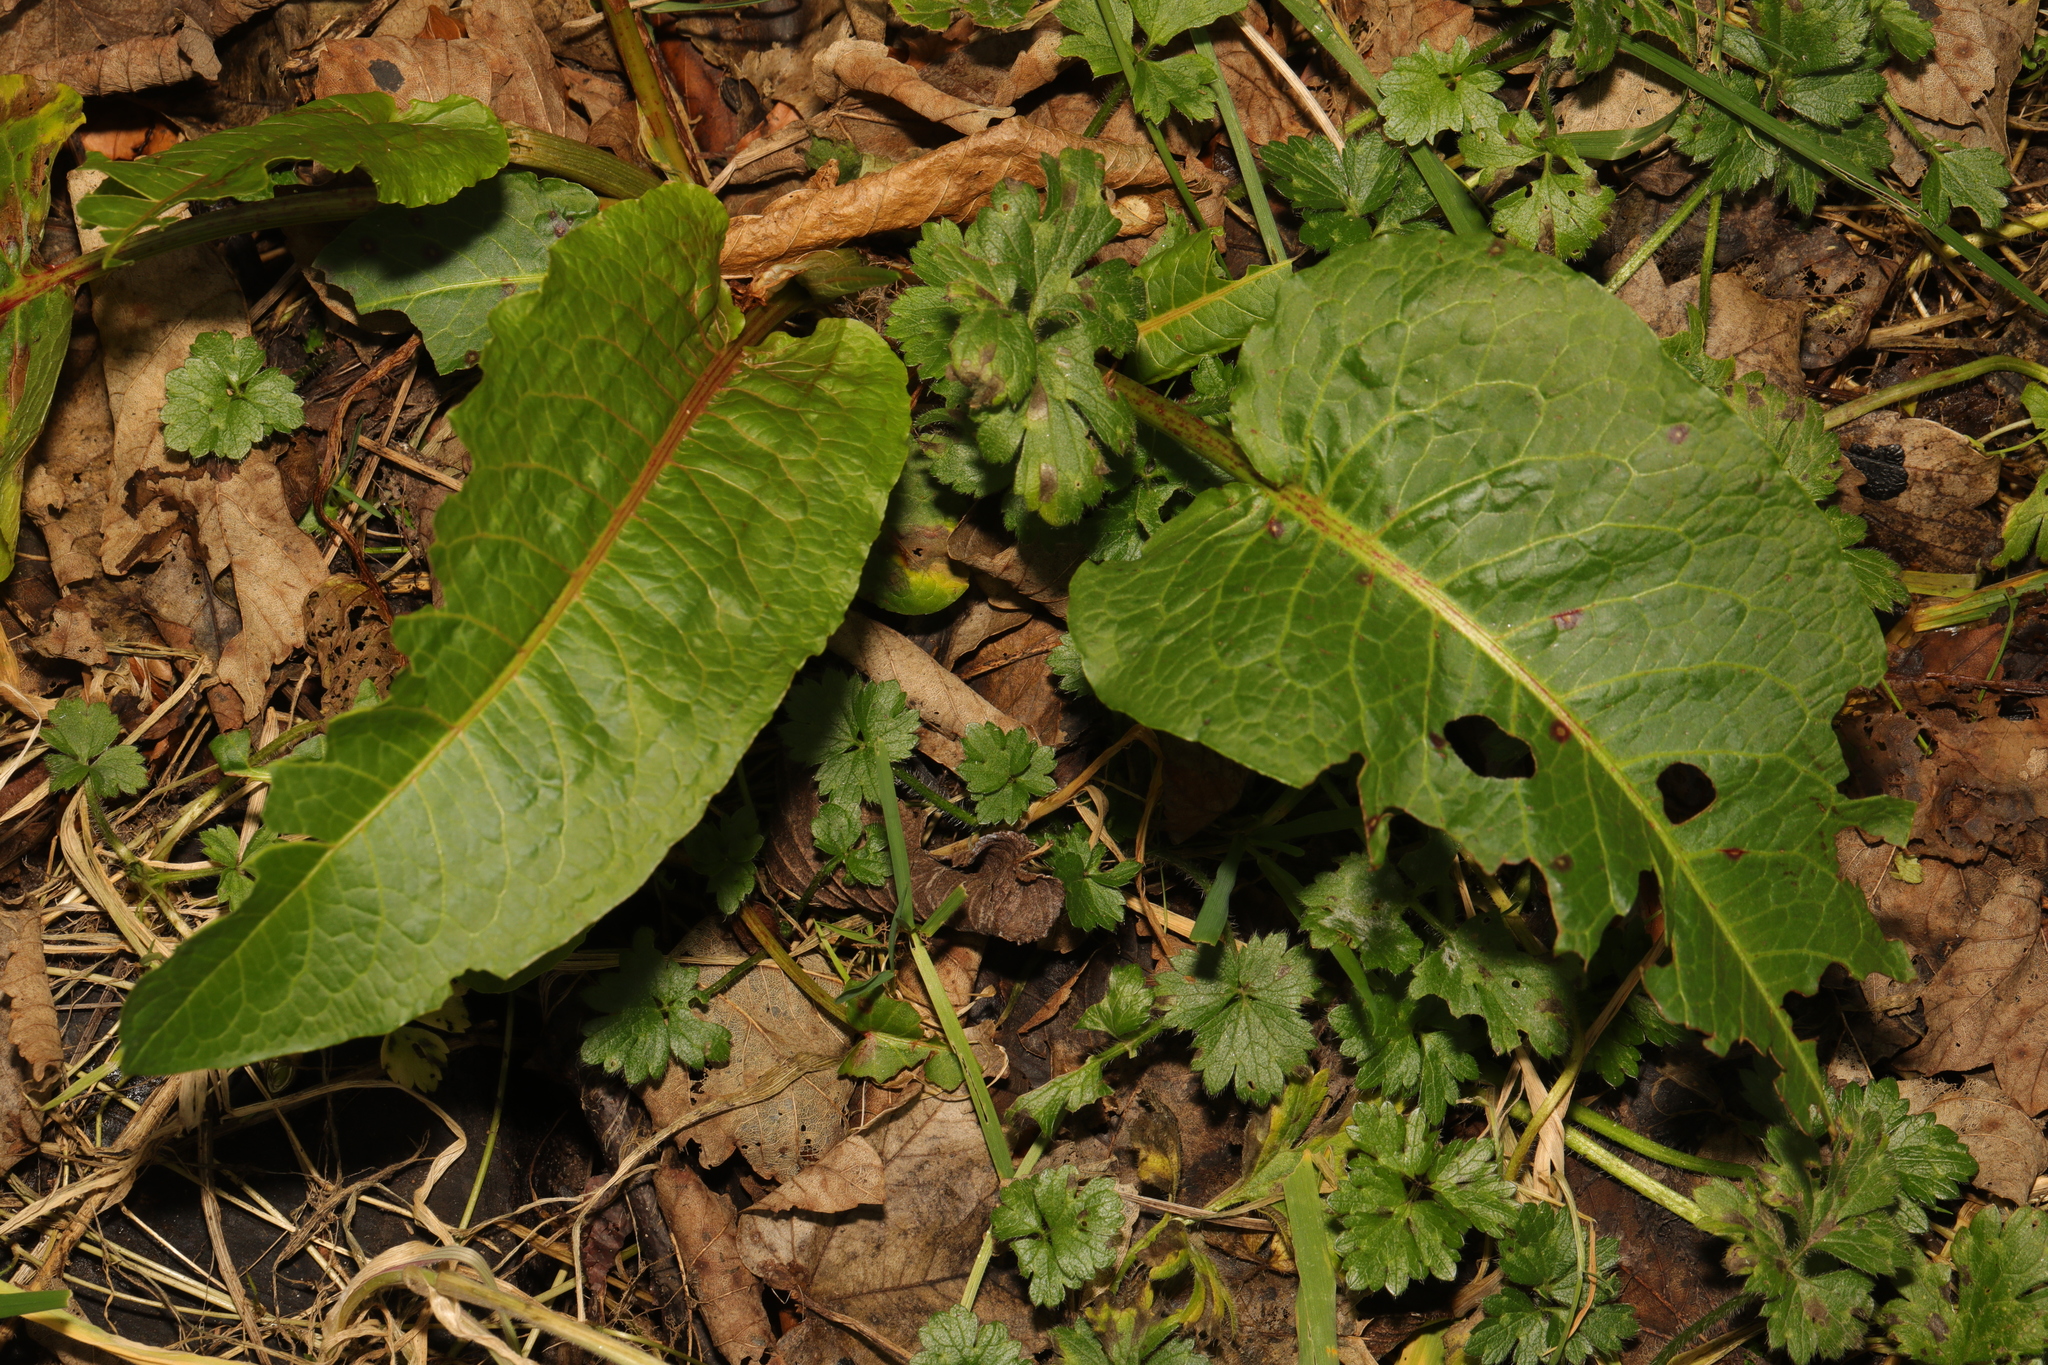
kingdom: Plantae
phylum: Tracheophyta
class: Magnoliopsida
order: Caryophyllales
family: Polygonaceae
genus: Rumex
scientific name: Rumex obtusifolius
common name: Bitter dock
